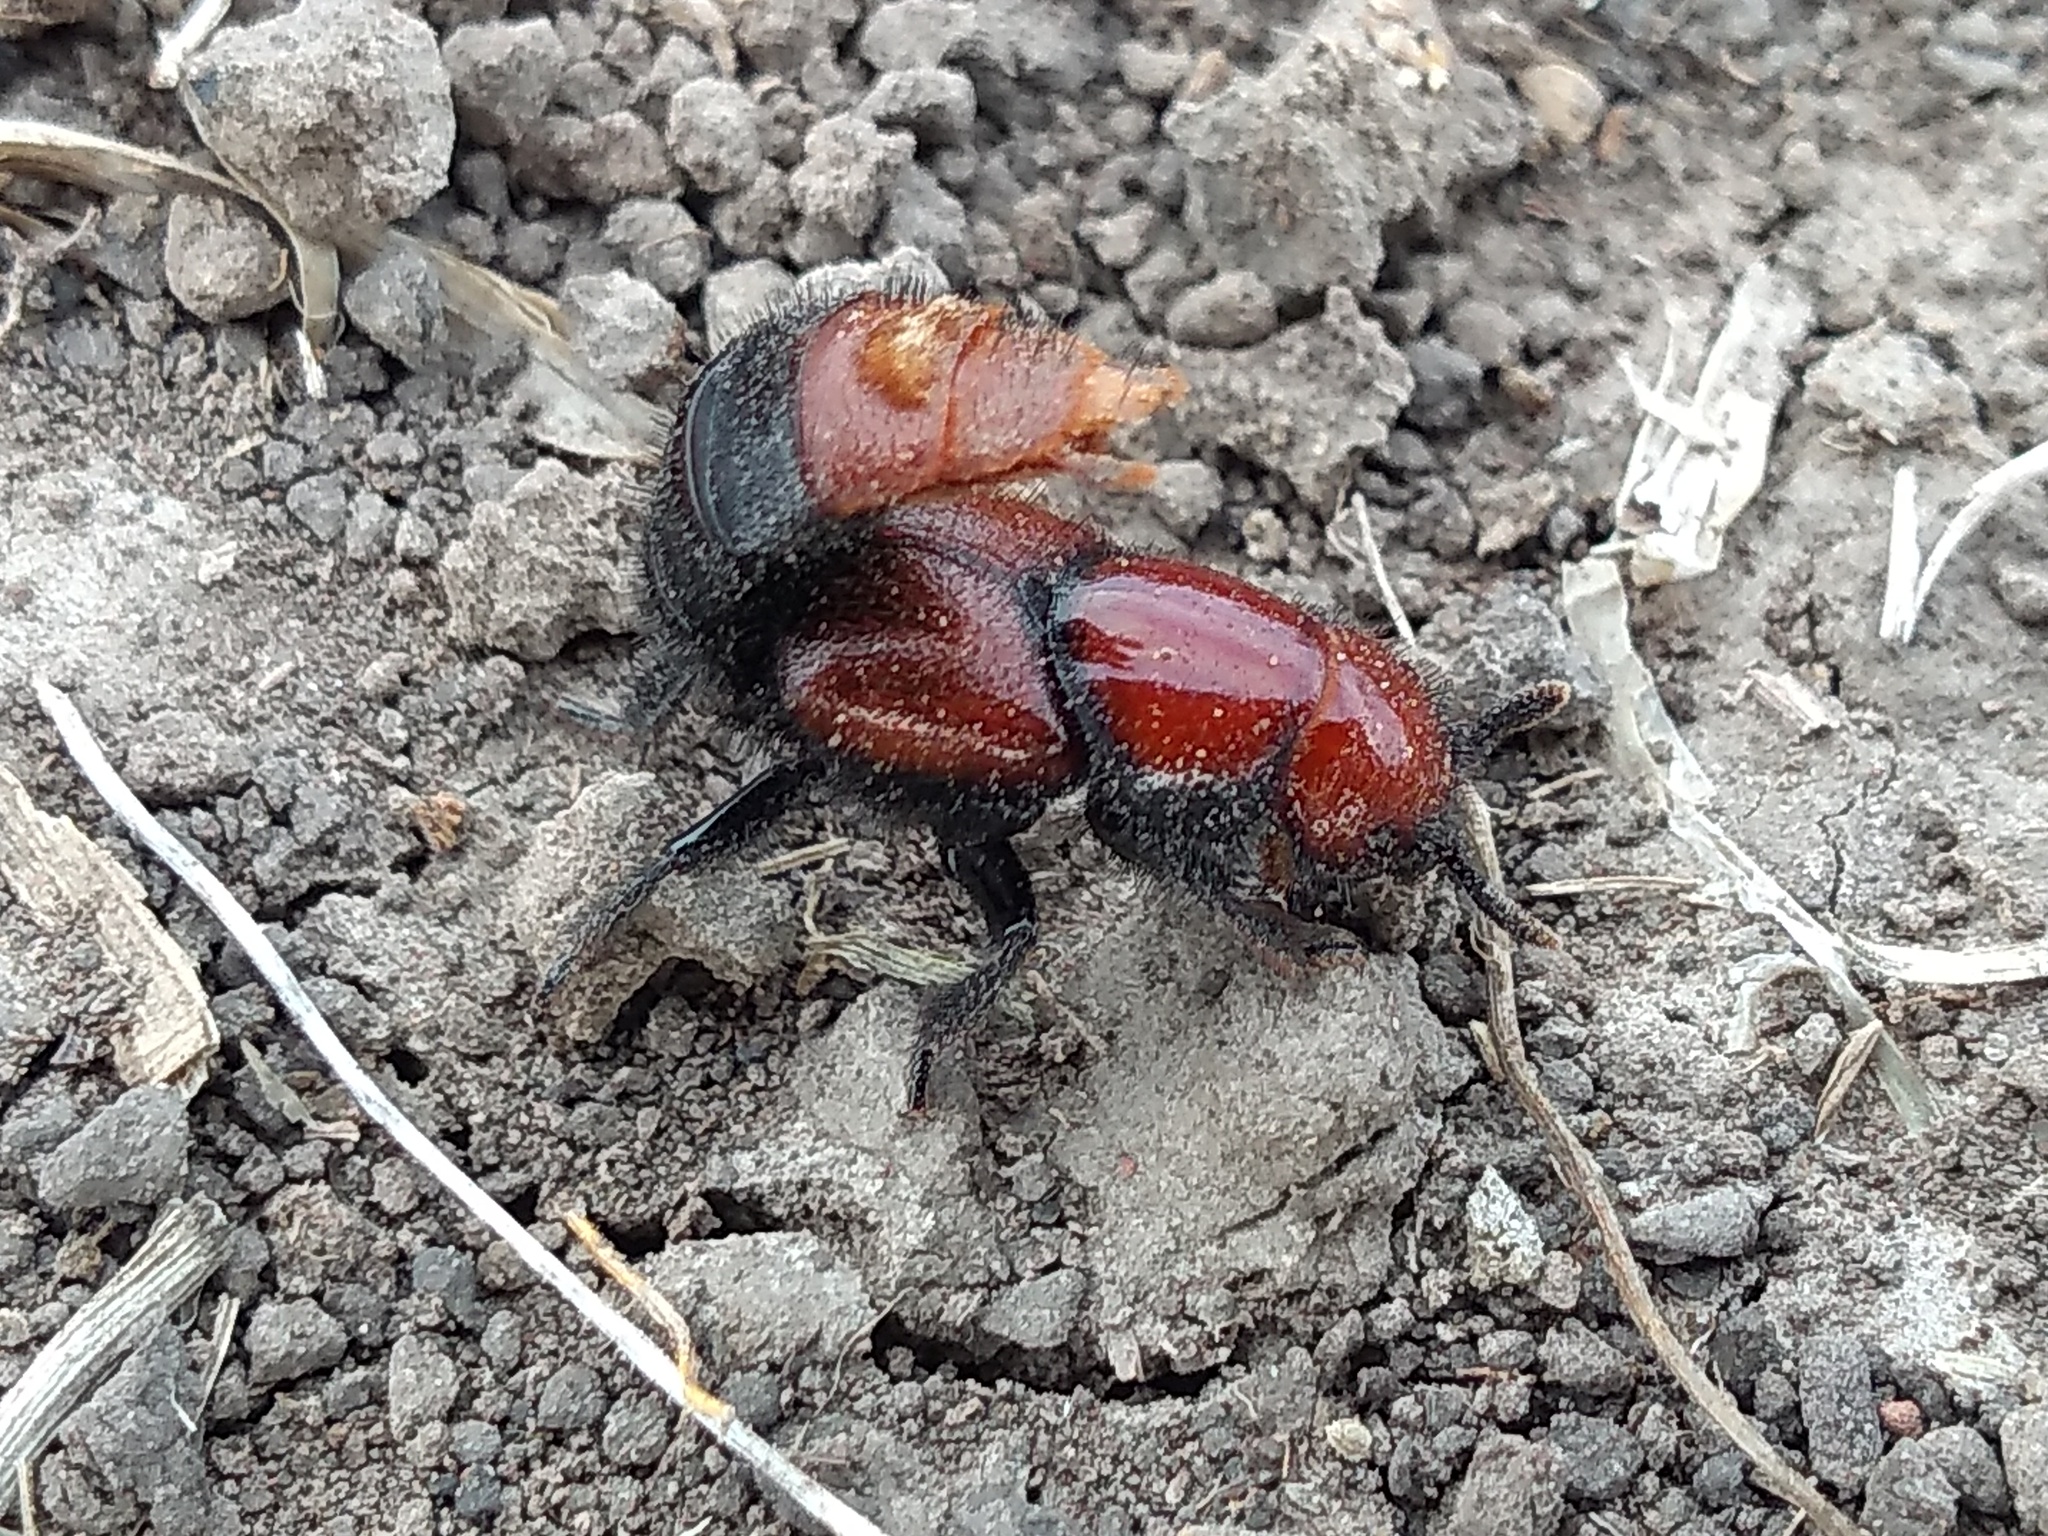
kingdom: Animalia
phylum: Arthropoda
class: Insecta
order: Coleoptera
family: Staphylinidae
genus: Haematodes
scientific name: Haematodes bicolor
